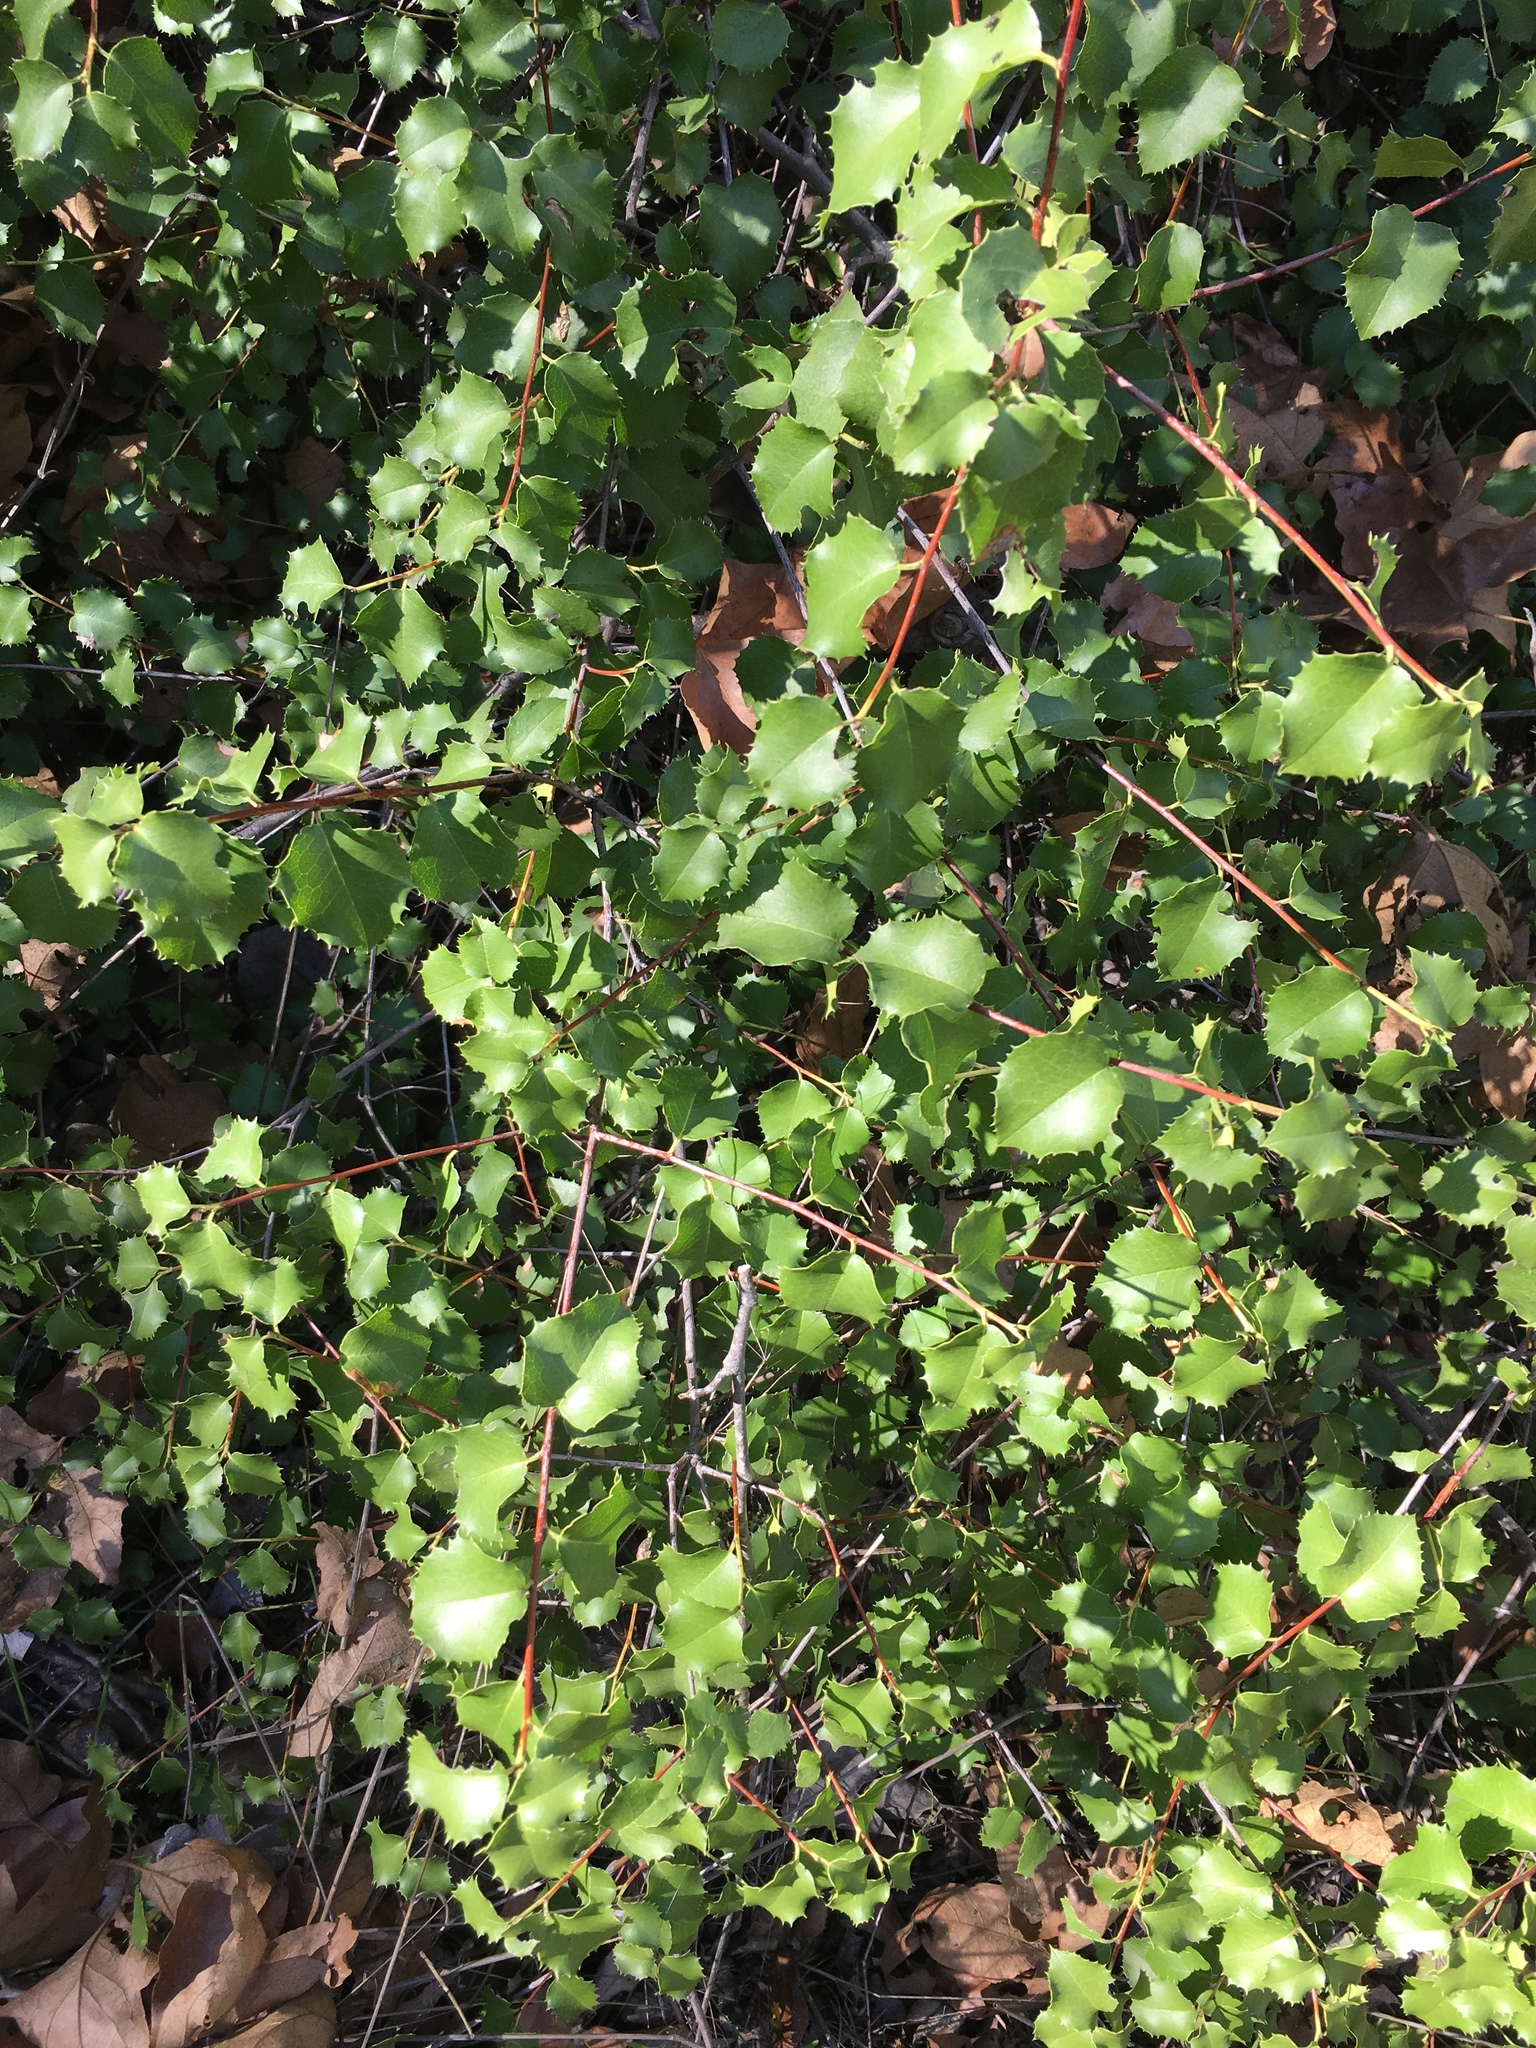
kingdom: Plantae
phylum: Tracheophyta
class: Magnoliopsida
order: Rosales
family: Rosaceae
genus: Prunus
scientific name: Prunus ilicifolia
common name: Hollyleaf cherry
